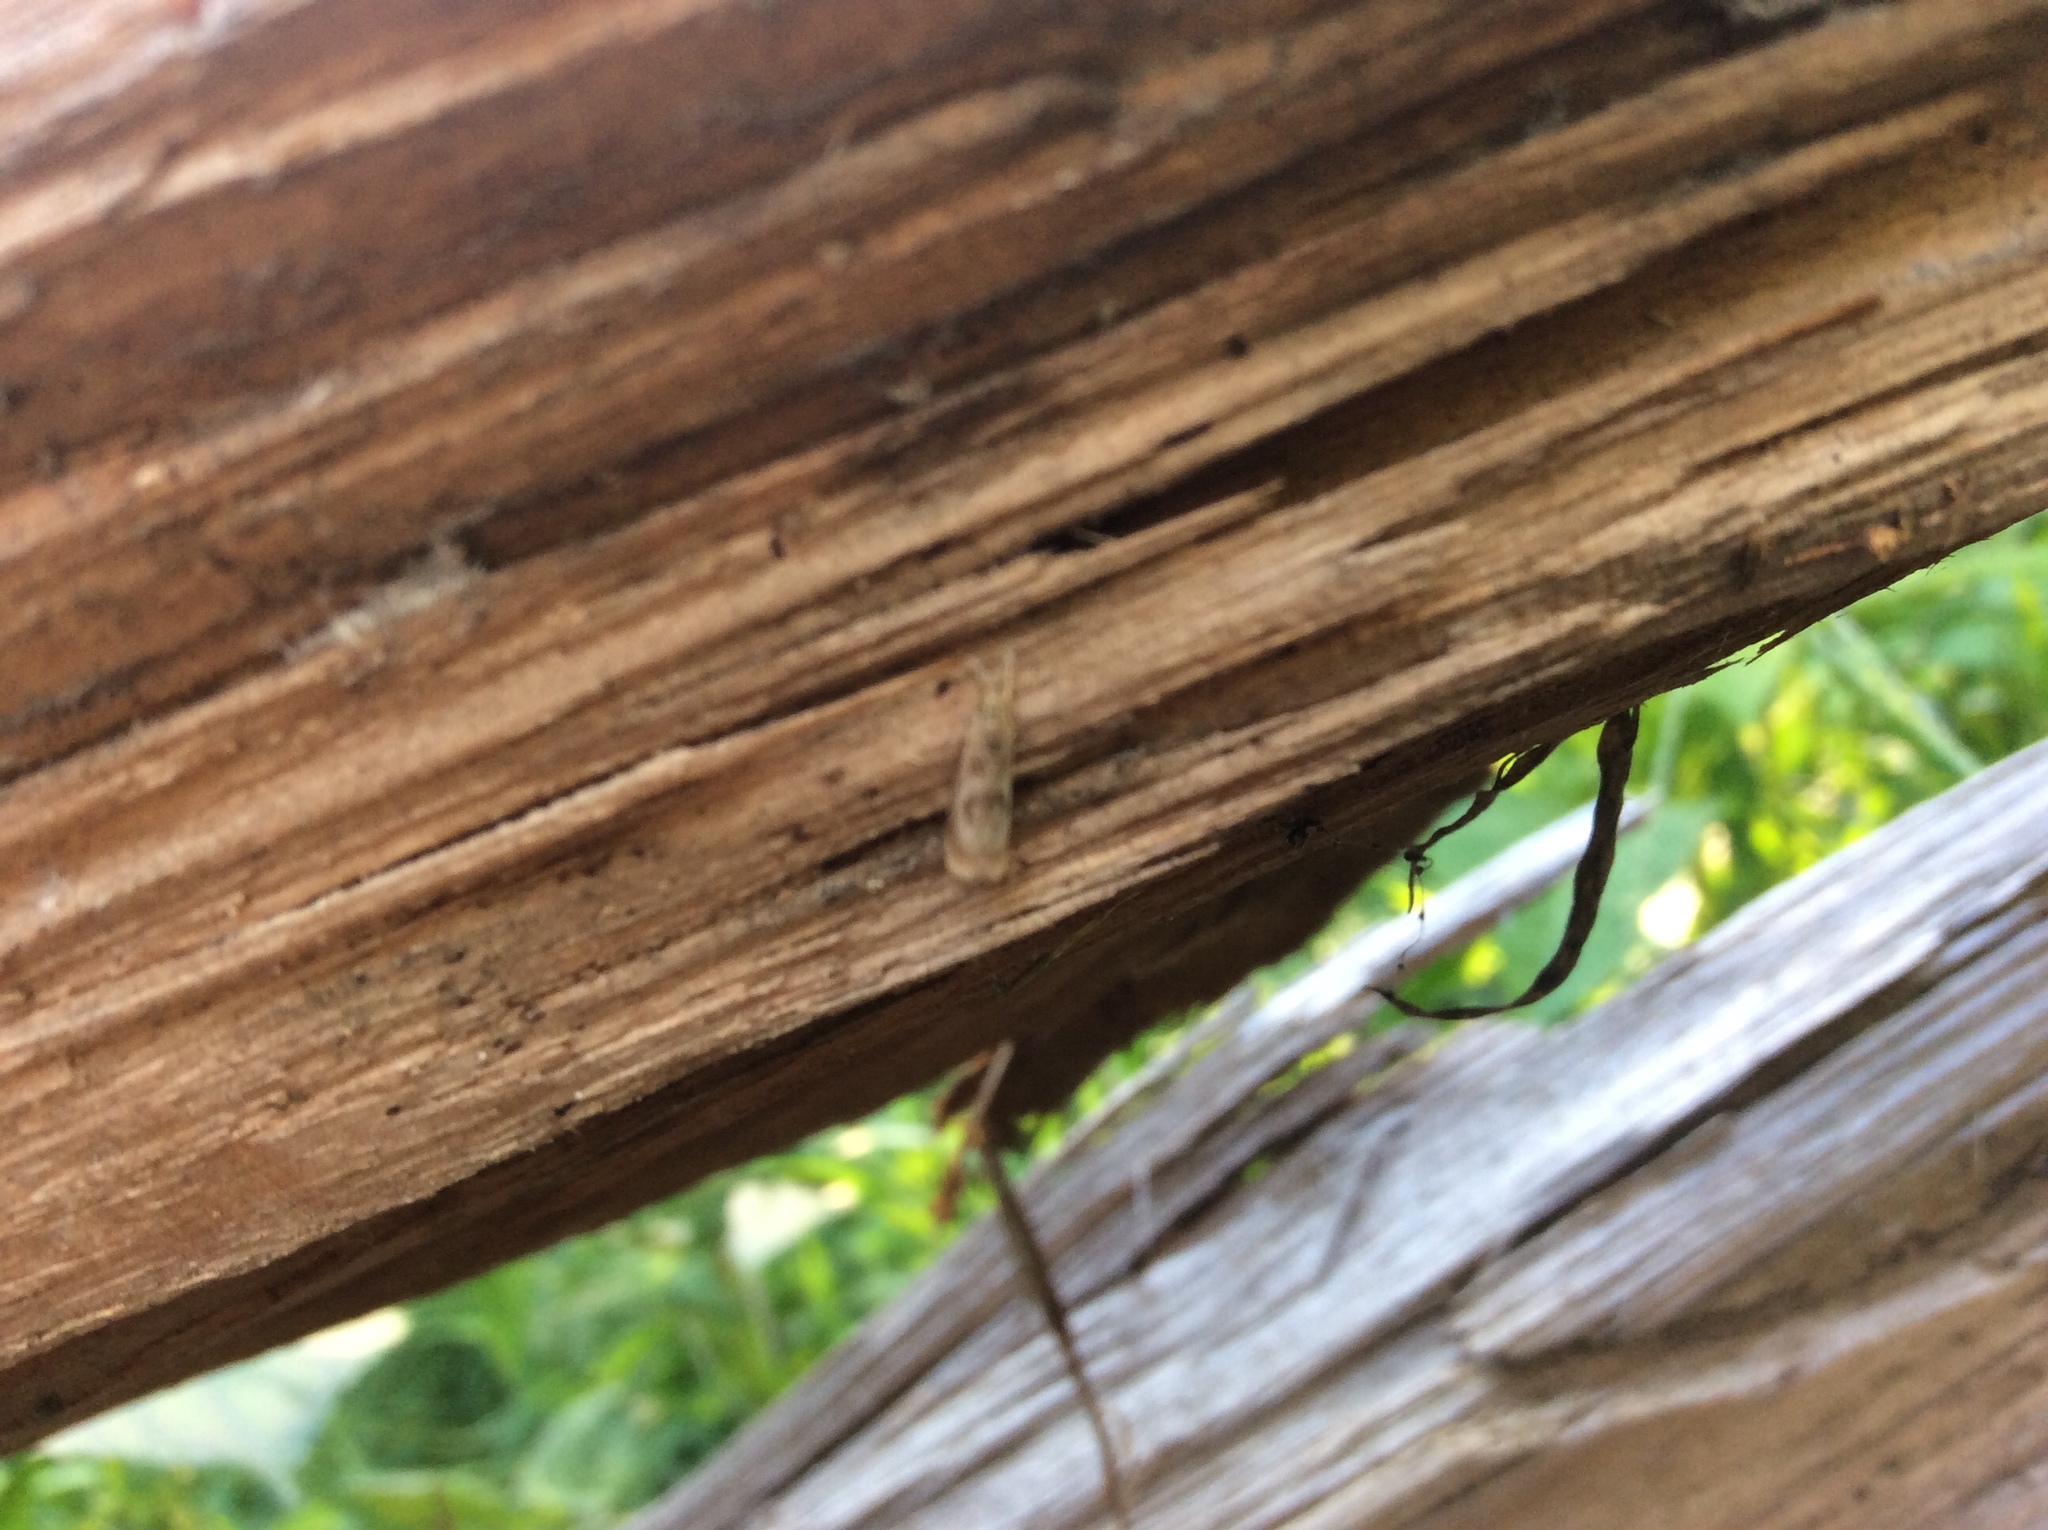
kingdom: Animalia
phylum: Arthropoda
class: Insecta
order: Lepidoptera
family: Crambidae
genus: Microcrambus
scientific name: Microcrambus elegans
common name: Elegant grass-veneer
